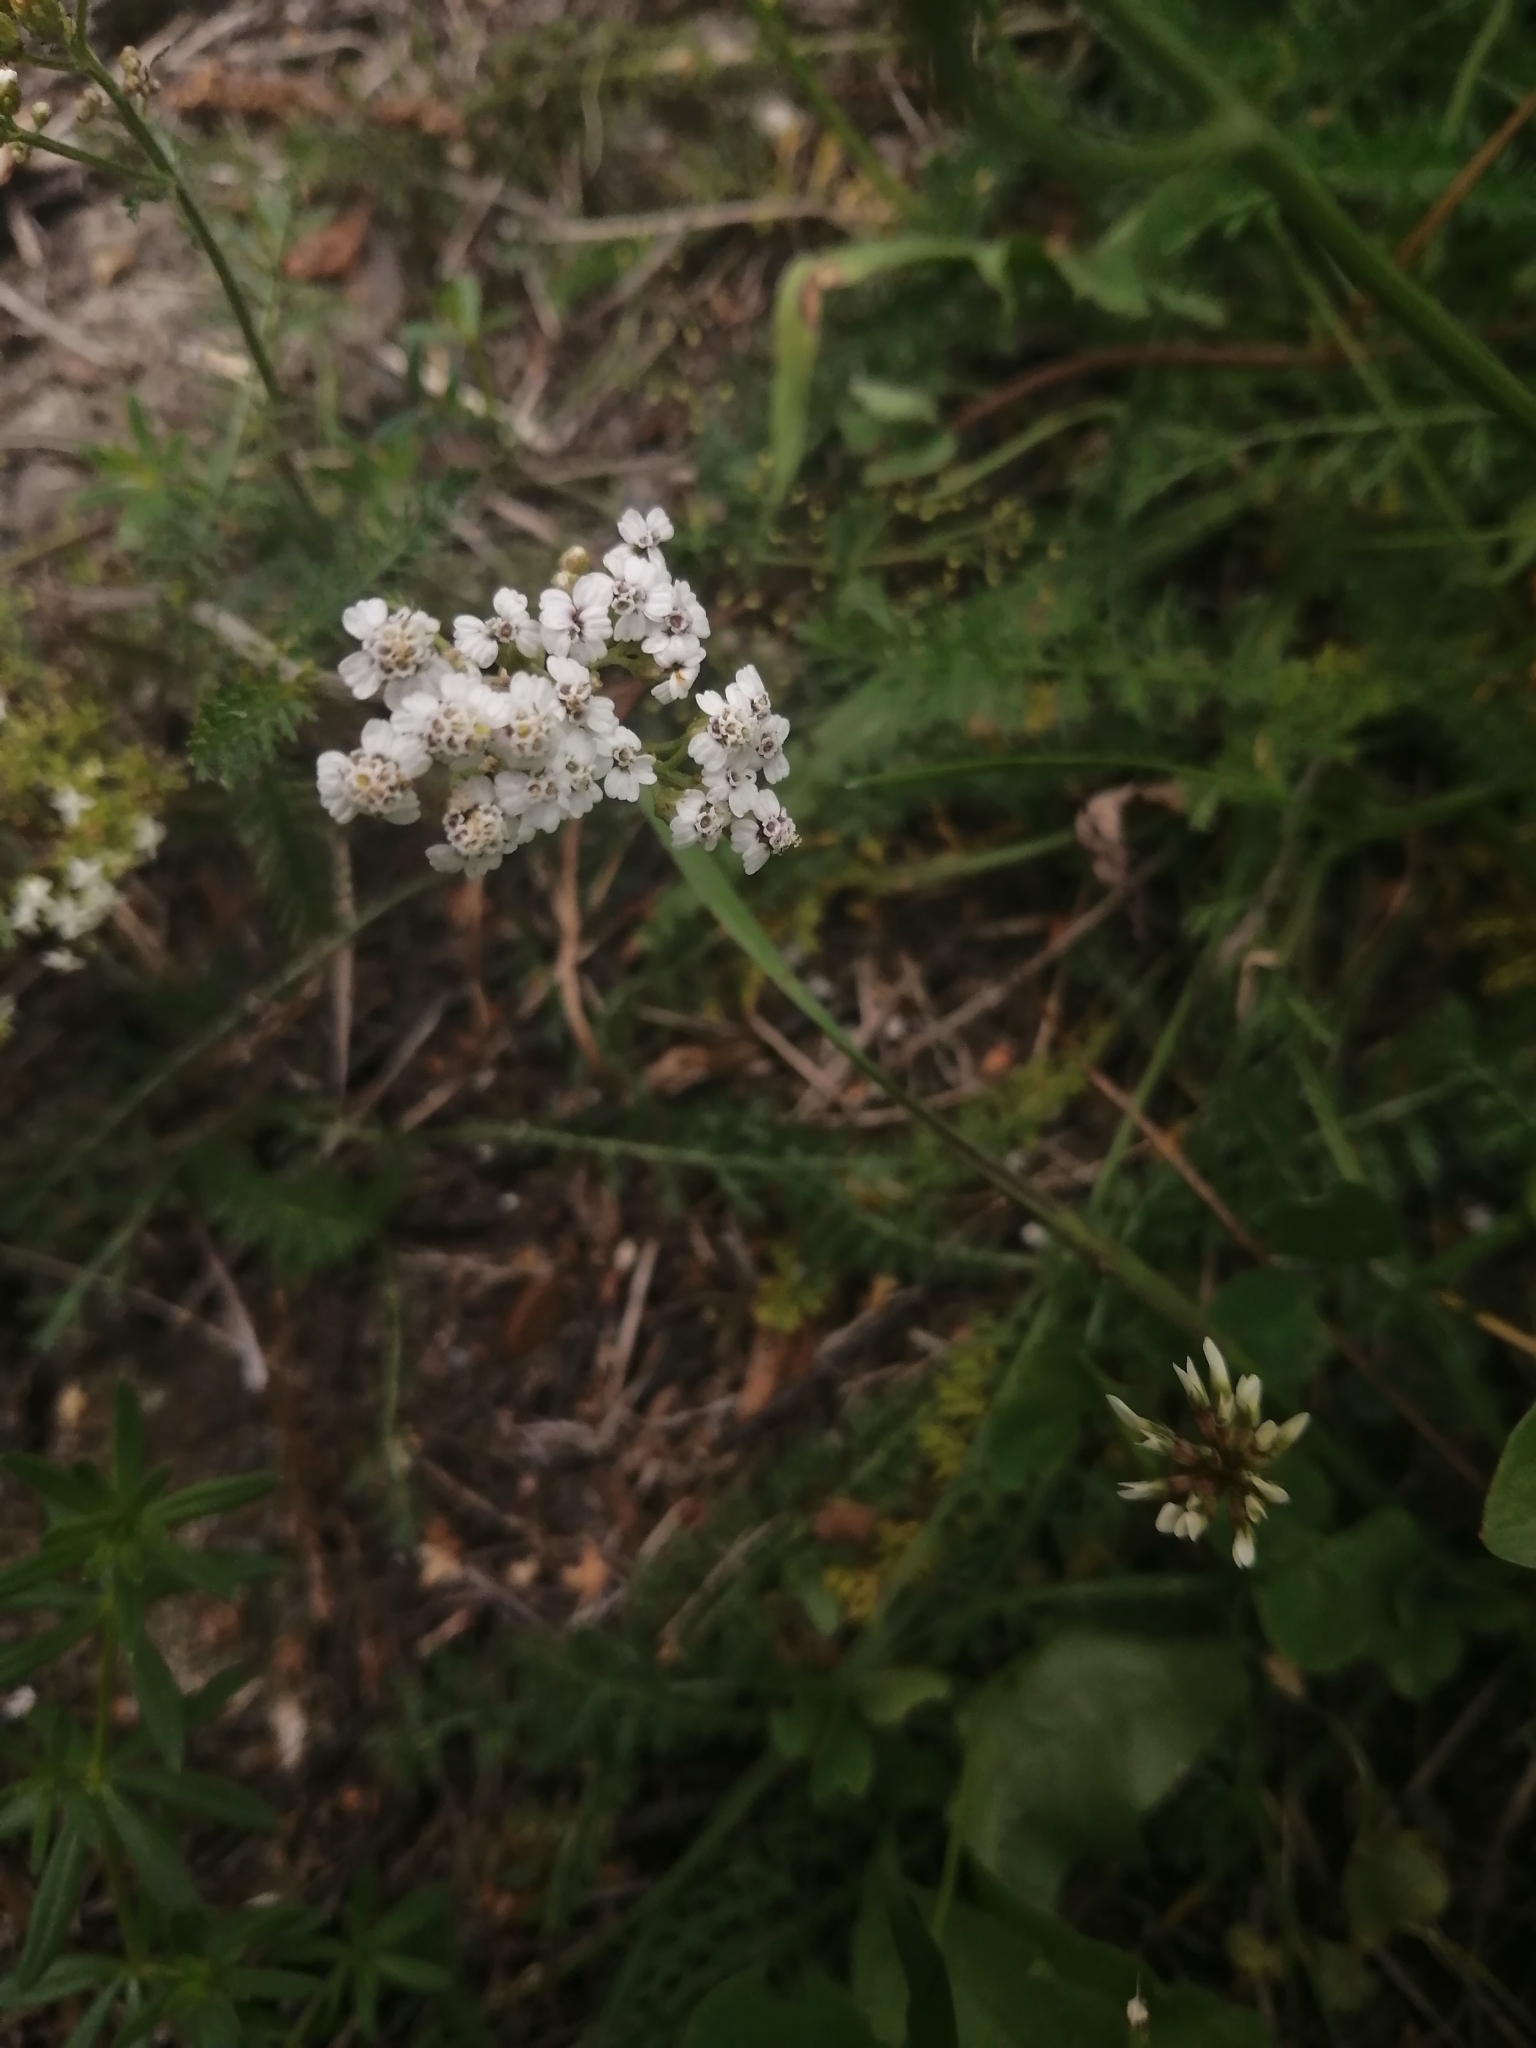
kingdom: Plantae
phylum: Tracheophyta
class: Magnoliopsida
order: Asterales
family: Asteraceae
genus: Achillea
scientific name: Achillea millefolium
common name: Yarrow
